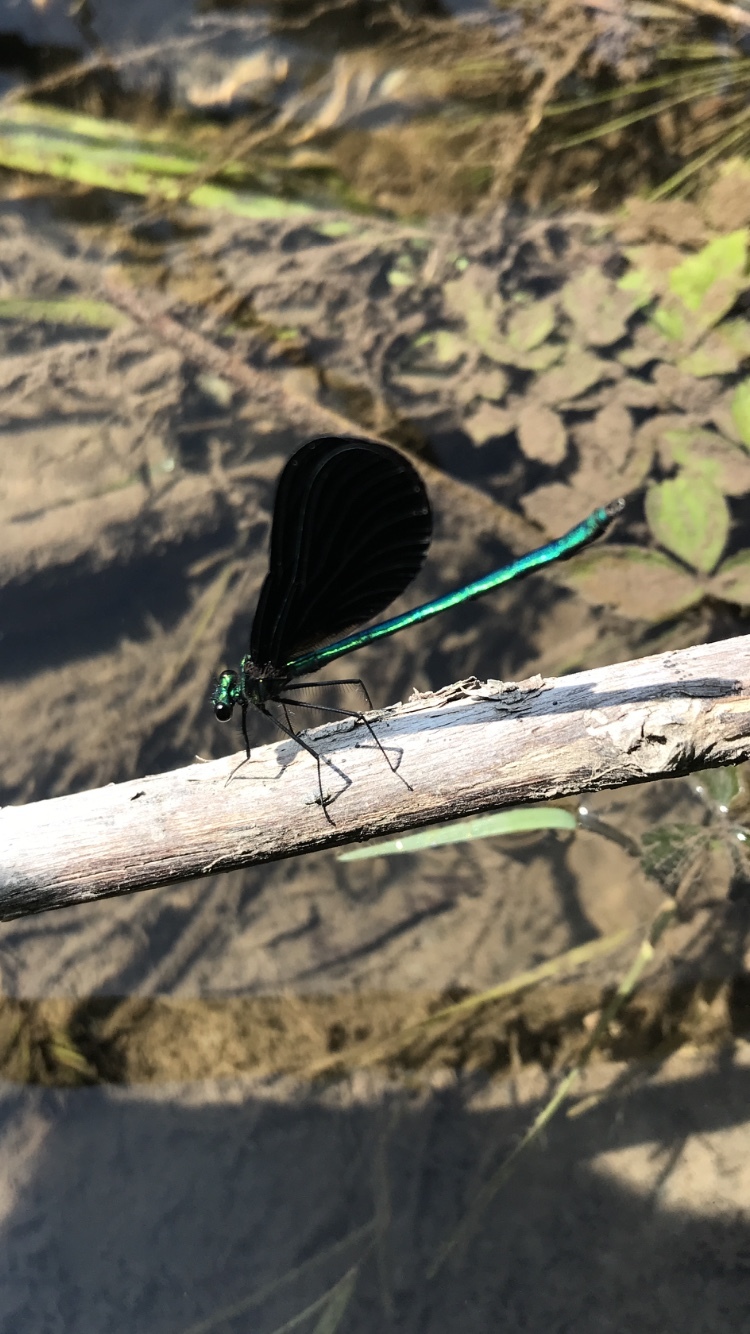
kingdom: Animalia
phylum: Arthropoda
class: Insecta
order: Odonata
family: Calopterygidae
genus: Calopteryx
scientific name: Calopteryx maculata
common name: Ebony jewelwing
